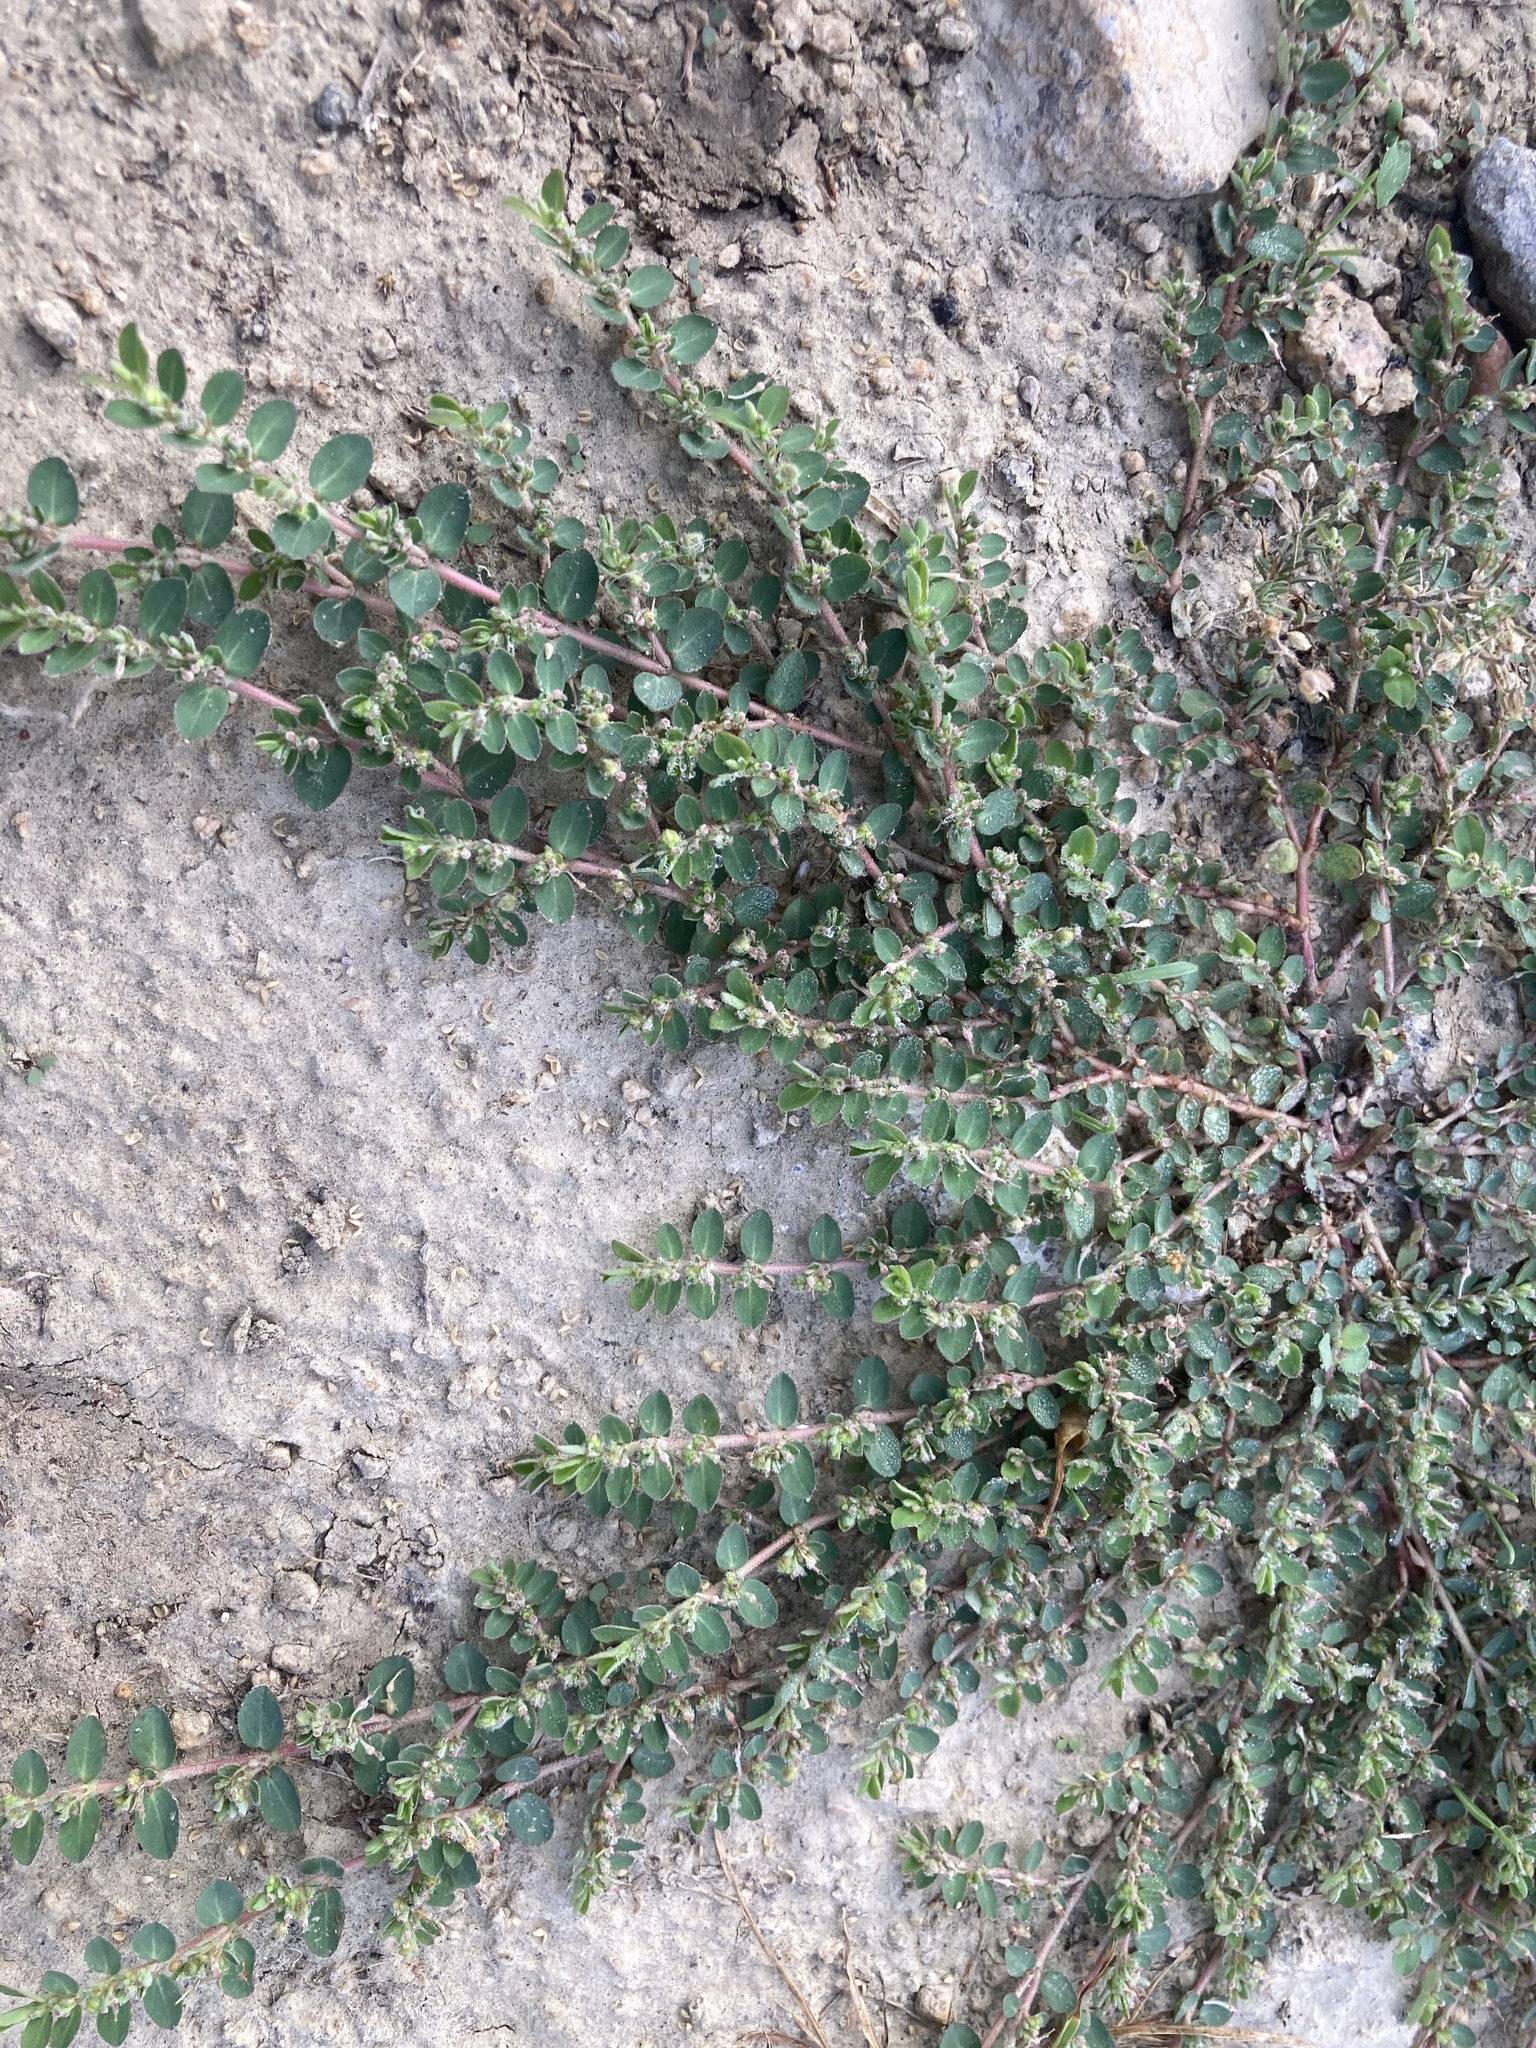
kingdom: Plantae
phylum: Tracheophyta
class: Magnoliopsida
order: Malpighiales
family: Euphorbiaceae
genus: Euphorbia
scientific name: Euphorbia prostrata
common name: Prostrate sandmat
